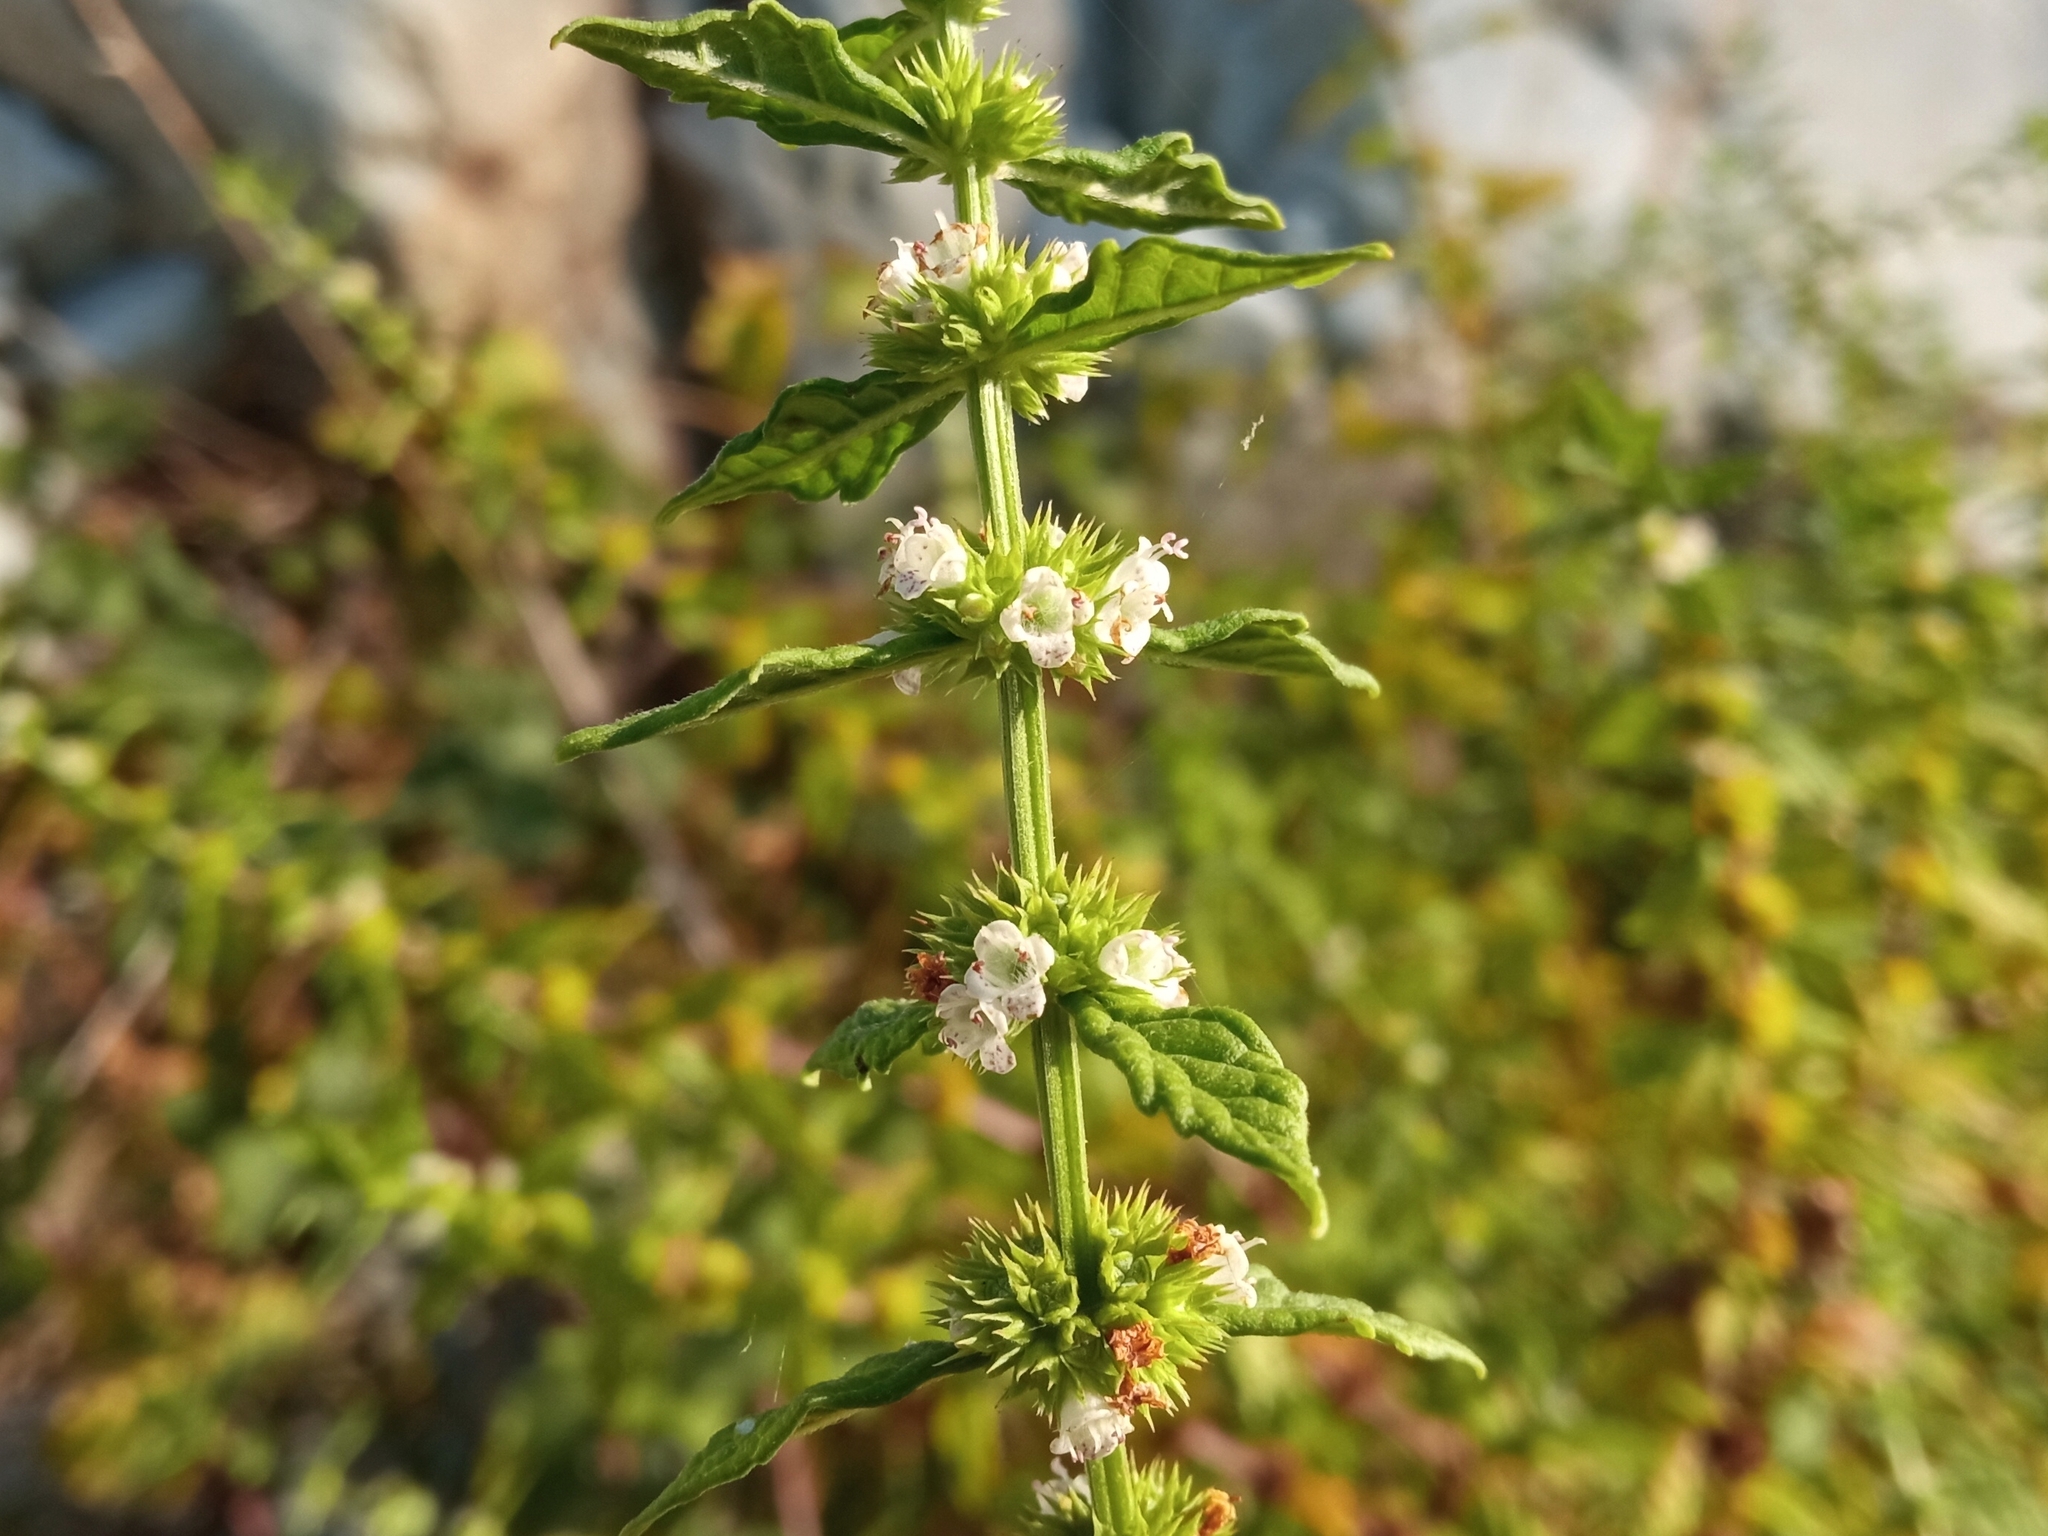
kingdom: Plantae
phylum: Tracheophyta
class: Magnoliopsida
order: Lamiales
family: Lamiaceae
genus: Lycopus
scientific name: Lycopus europaeus
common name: European bugleweed
